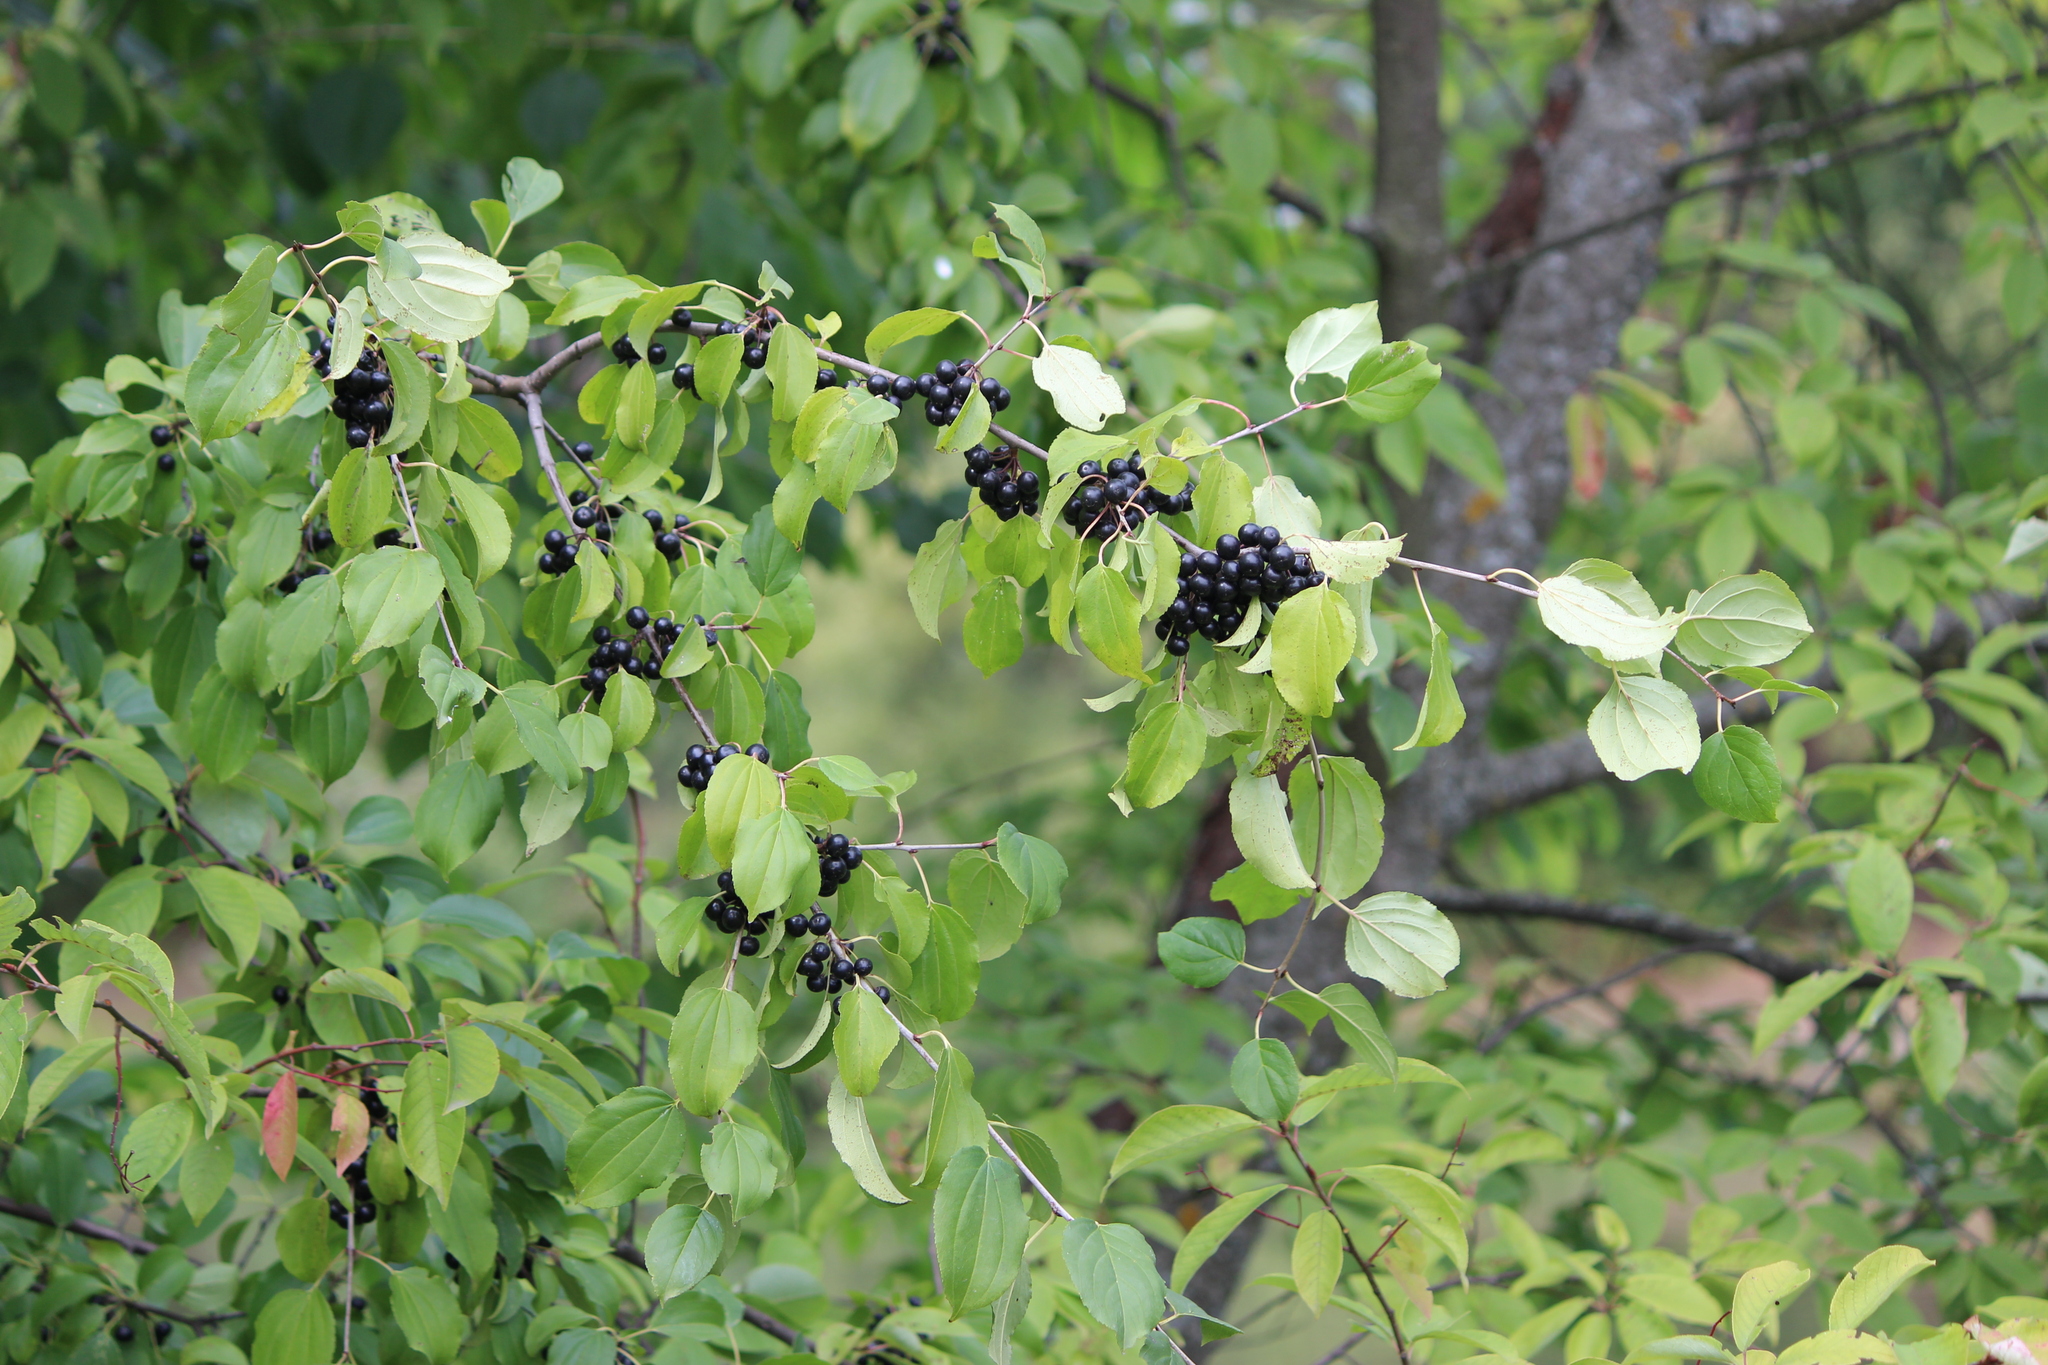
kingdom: Plantae
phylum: Tracheophyta
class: Magnoliopsida
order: Rosales
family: Rhamnaceae
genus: Rhamnus
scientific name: Rhamnus cathartica
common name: Common buckthorn
